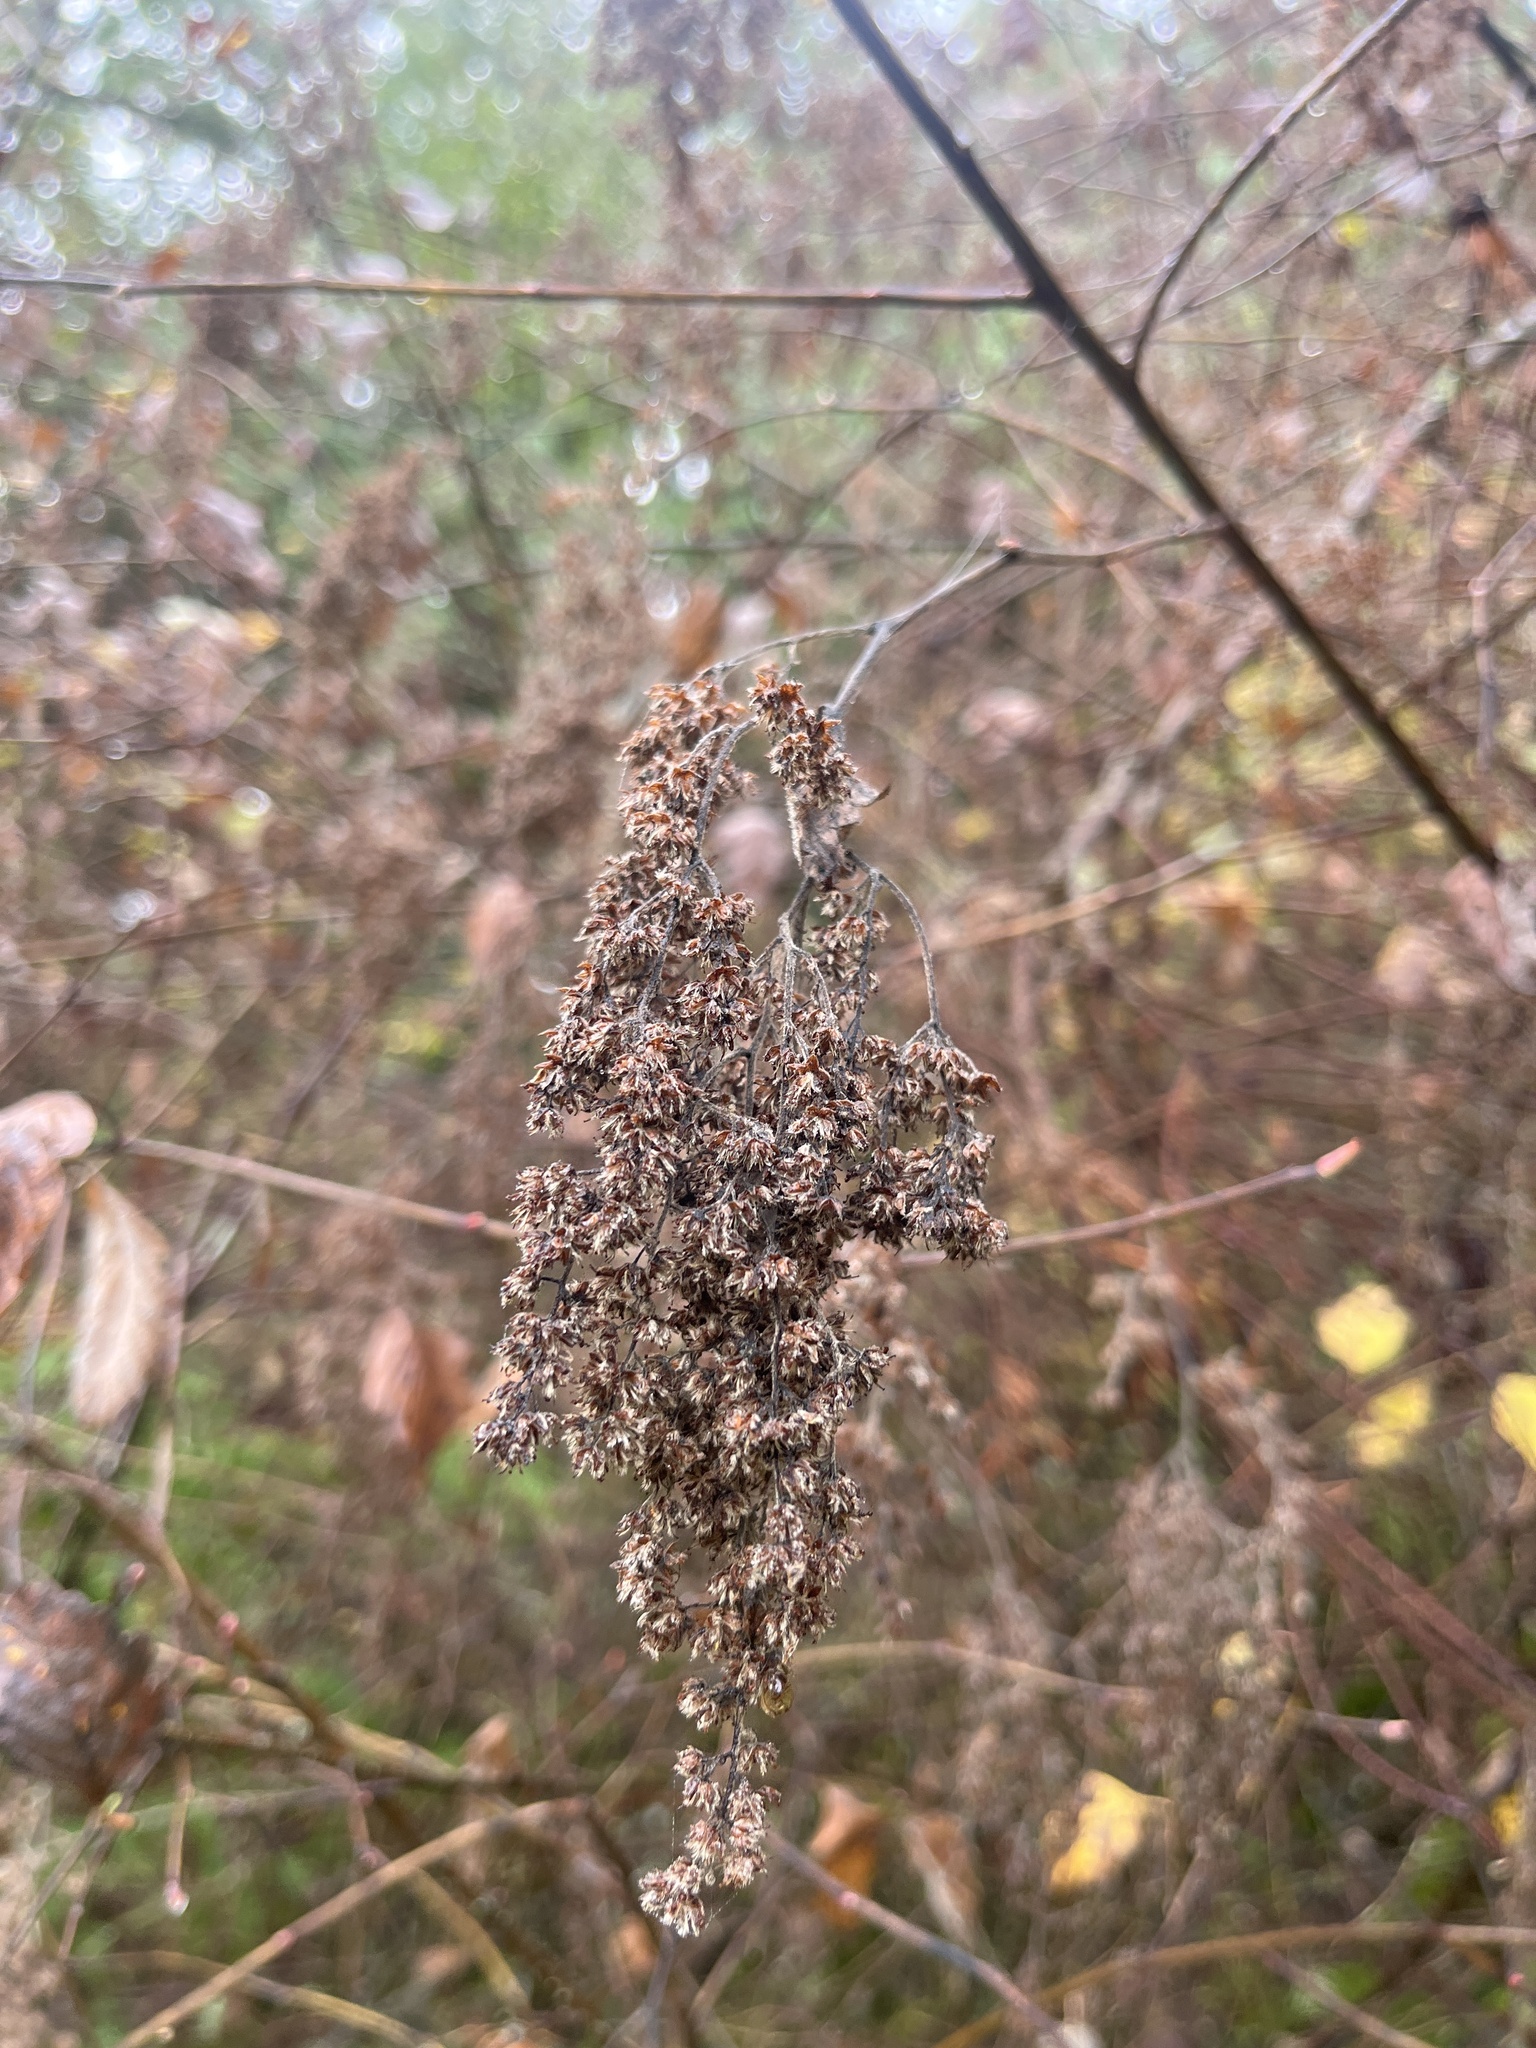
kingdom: Plantae
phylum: Tracheophyta
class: Magnoliopsida
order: Rosales
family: Rosaceae
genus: Holodiscus
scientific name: Holodiscus discolor
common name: Oceanspray
